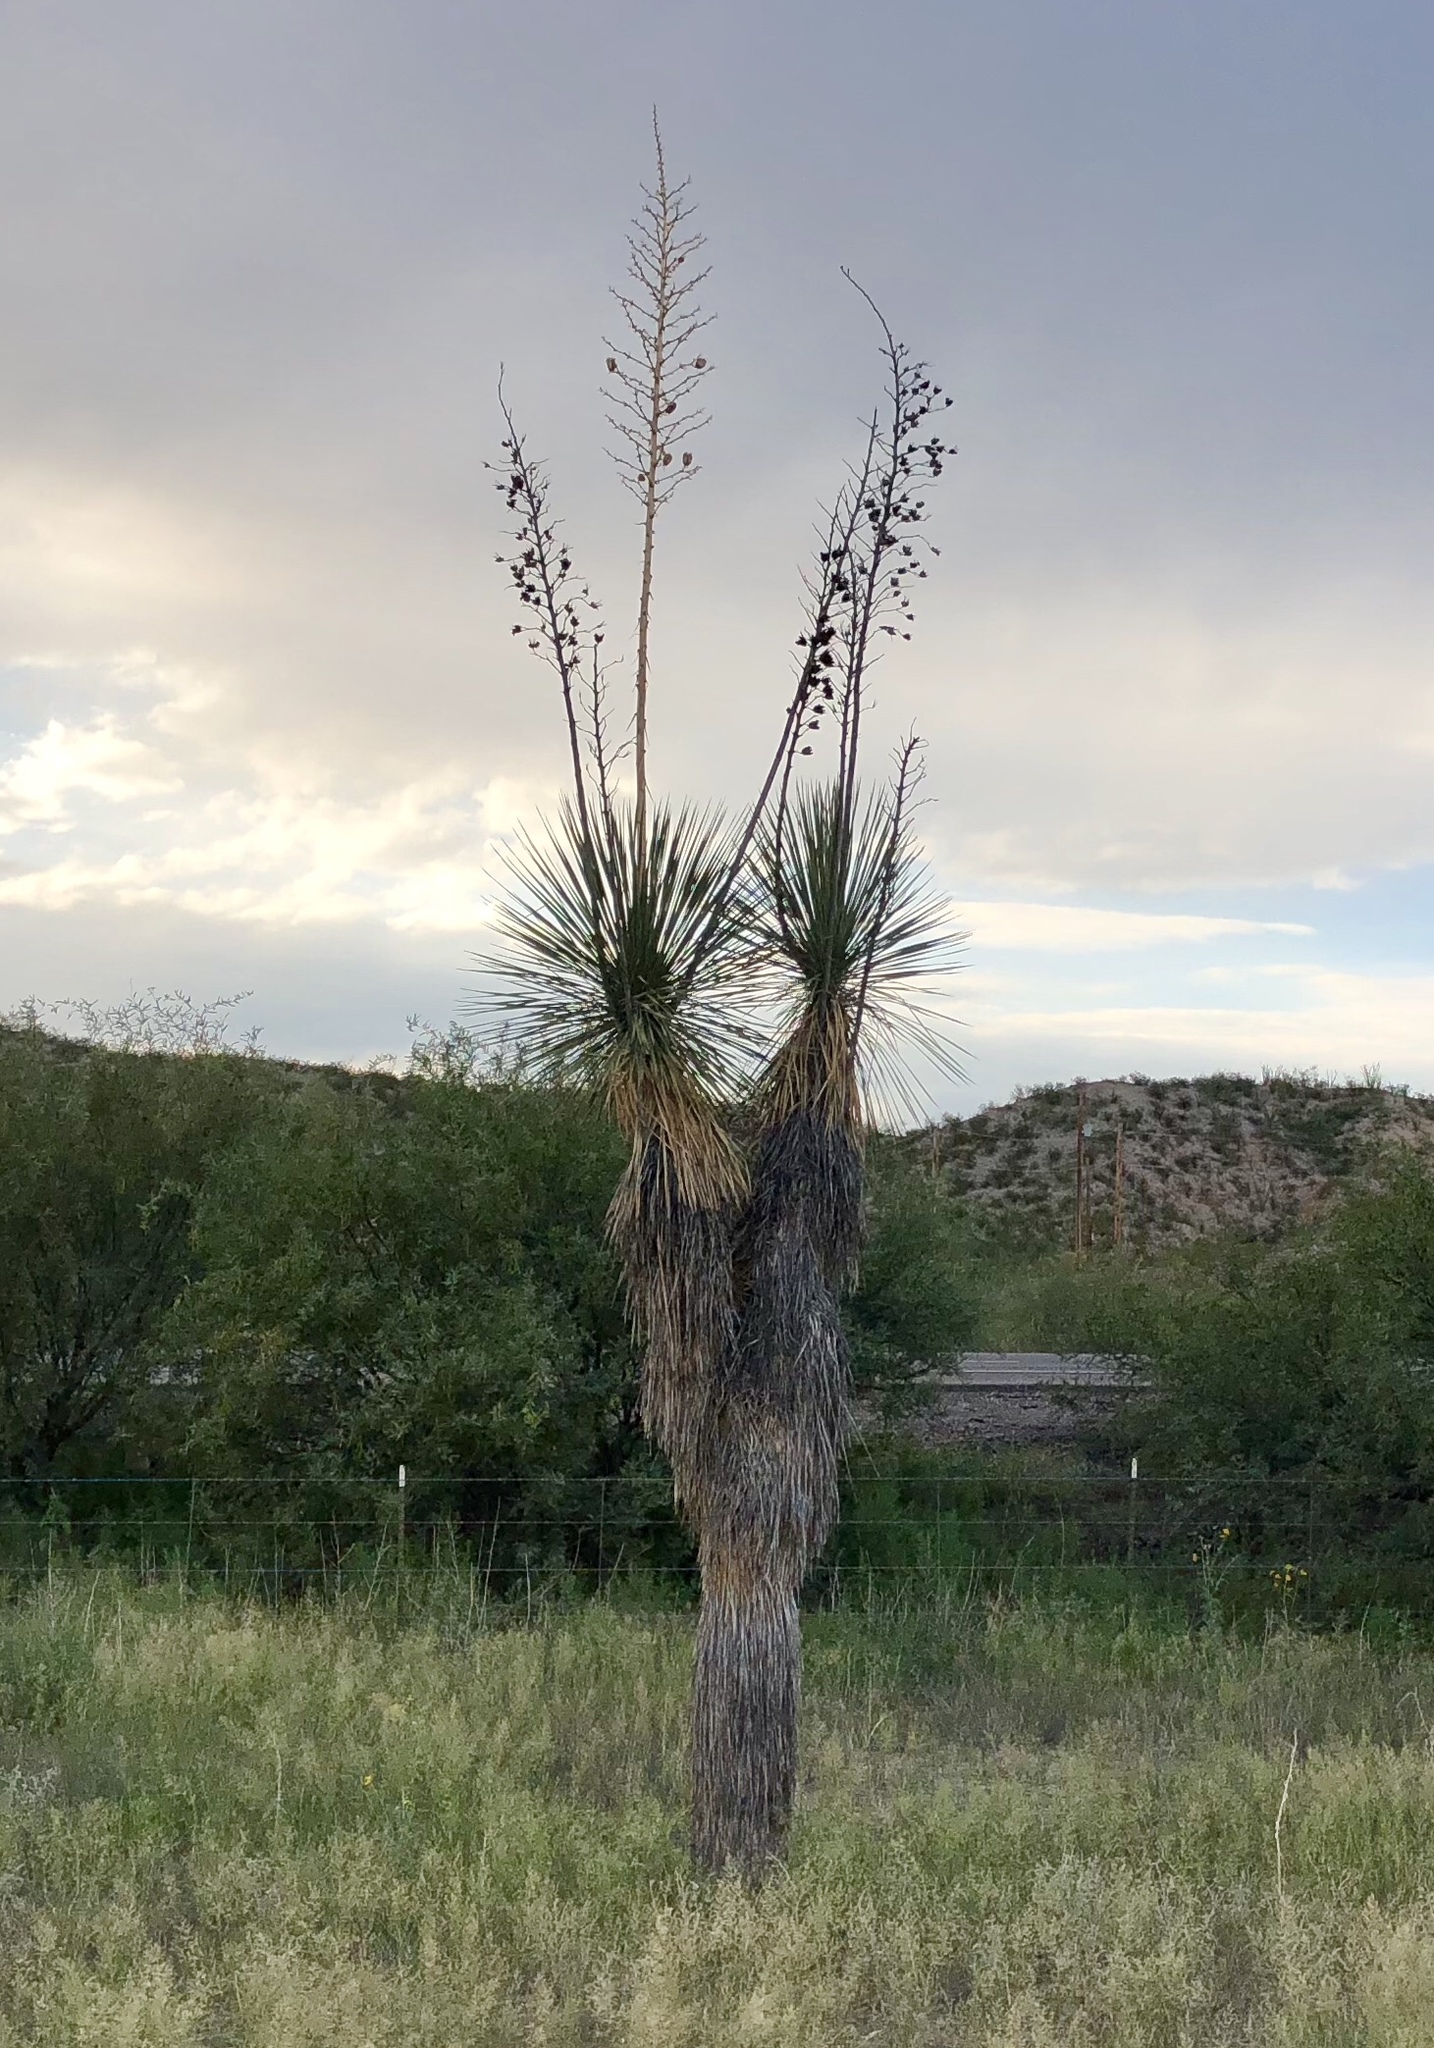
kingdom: Plantae
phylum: Tracheophyta
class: Liliopsida
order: Asparagales
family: Asparagaceae
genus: Yucca
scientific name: Yucca elata
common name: Palmella
